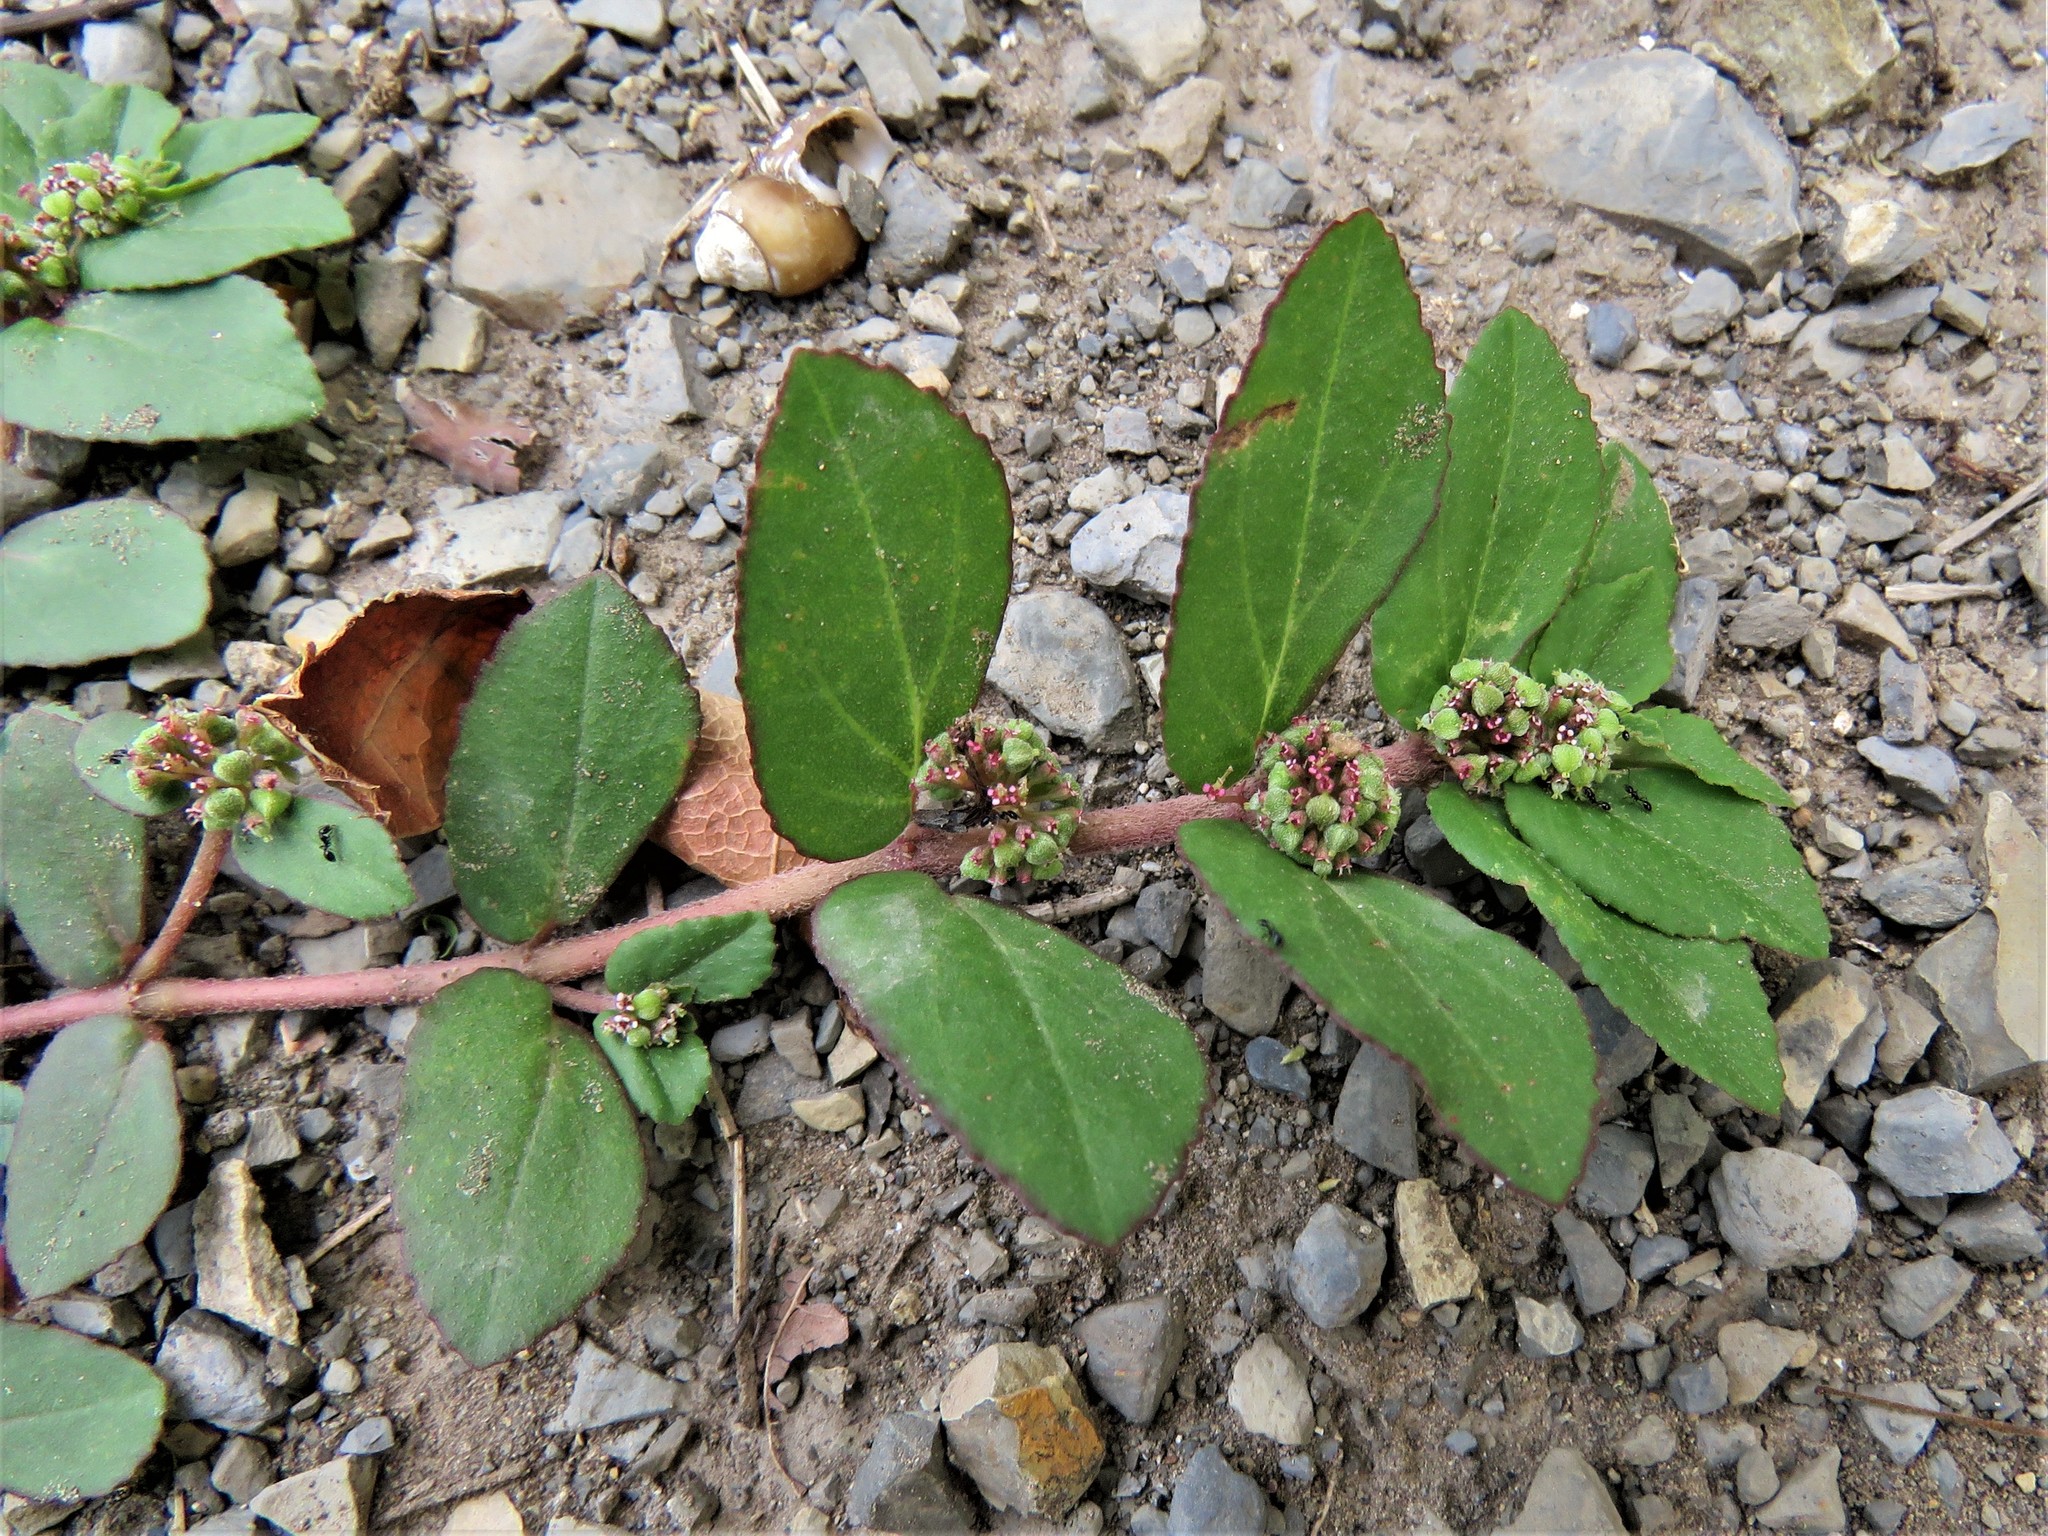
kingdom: Plantae
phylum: Tracheophyta
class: Magnoliopsida
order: Malpighiales
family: Euphorbiaceae
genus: Euphorbia
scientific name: Euphorbia hirta
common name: Pillpod sandmat
